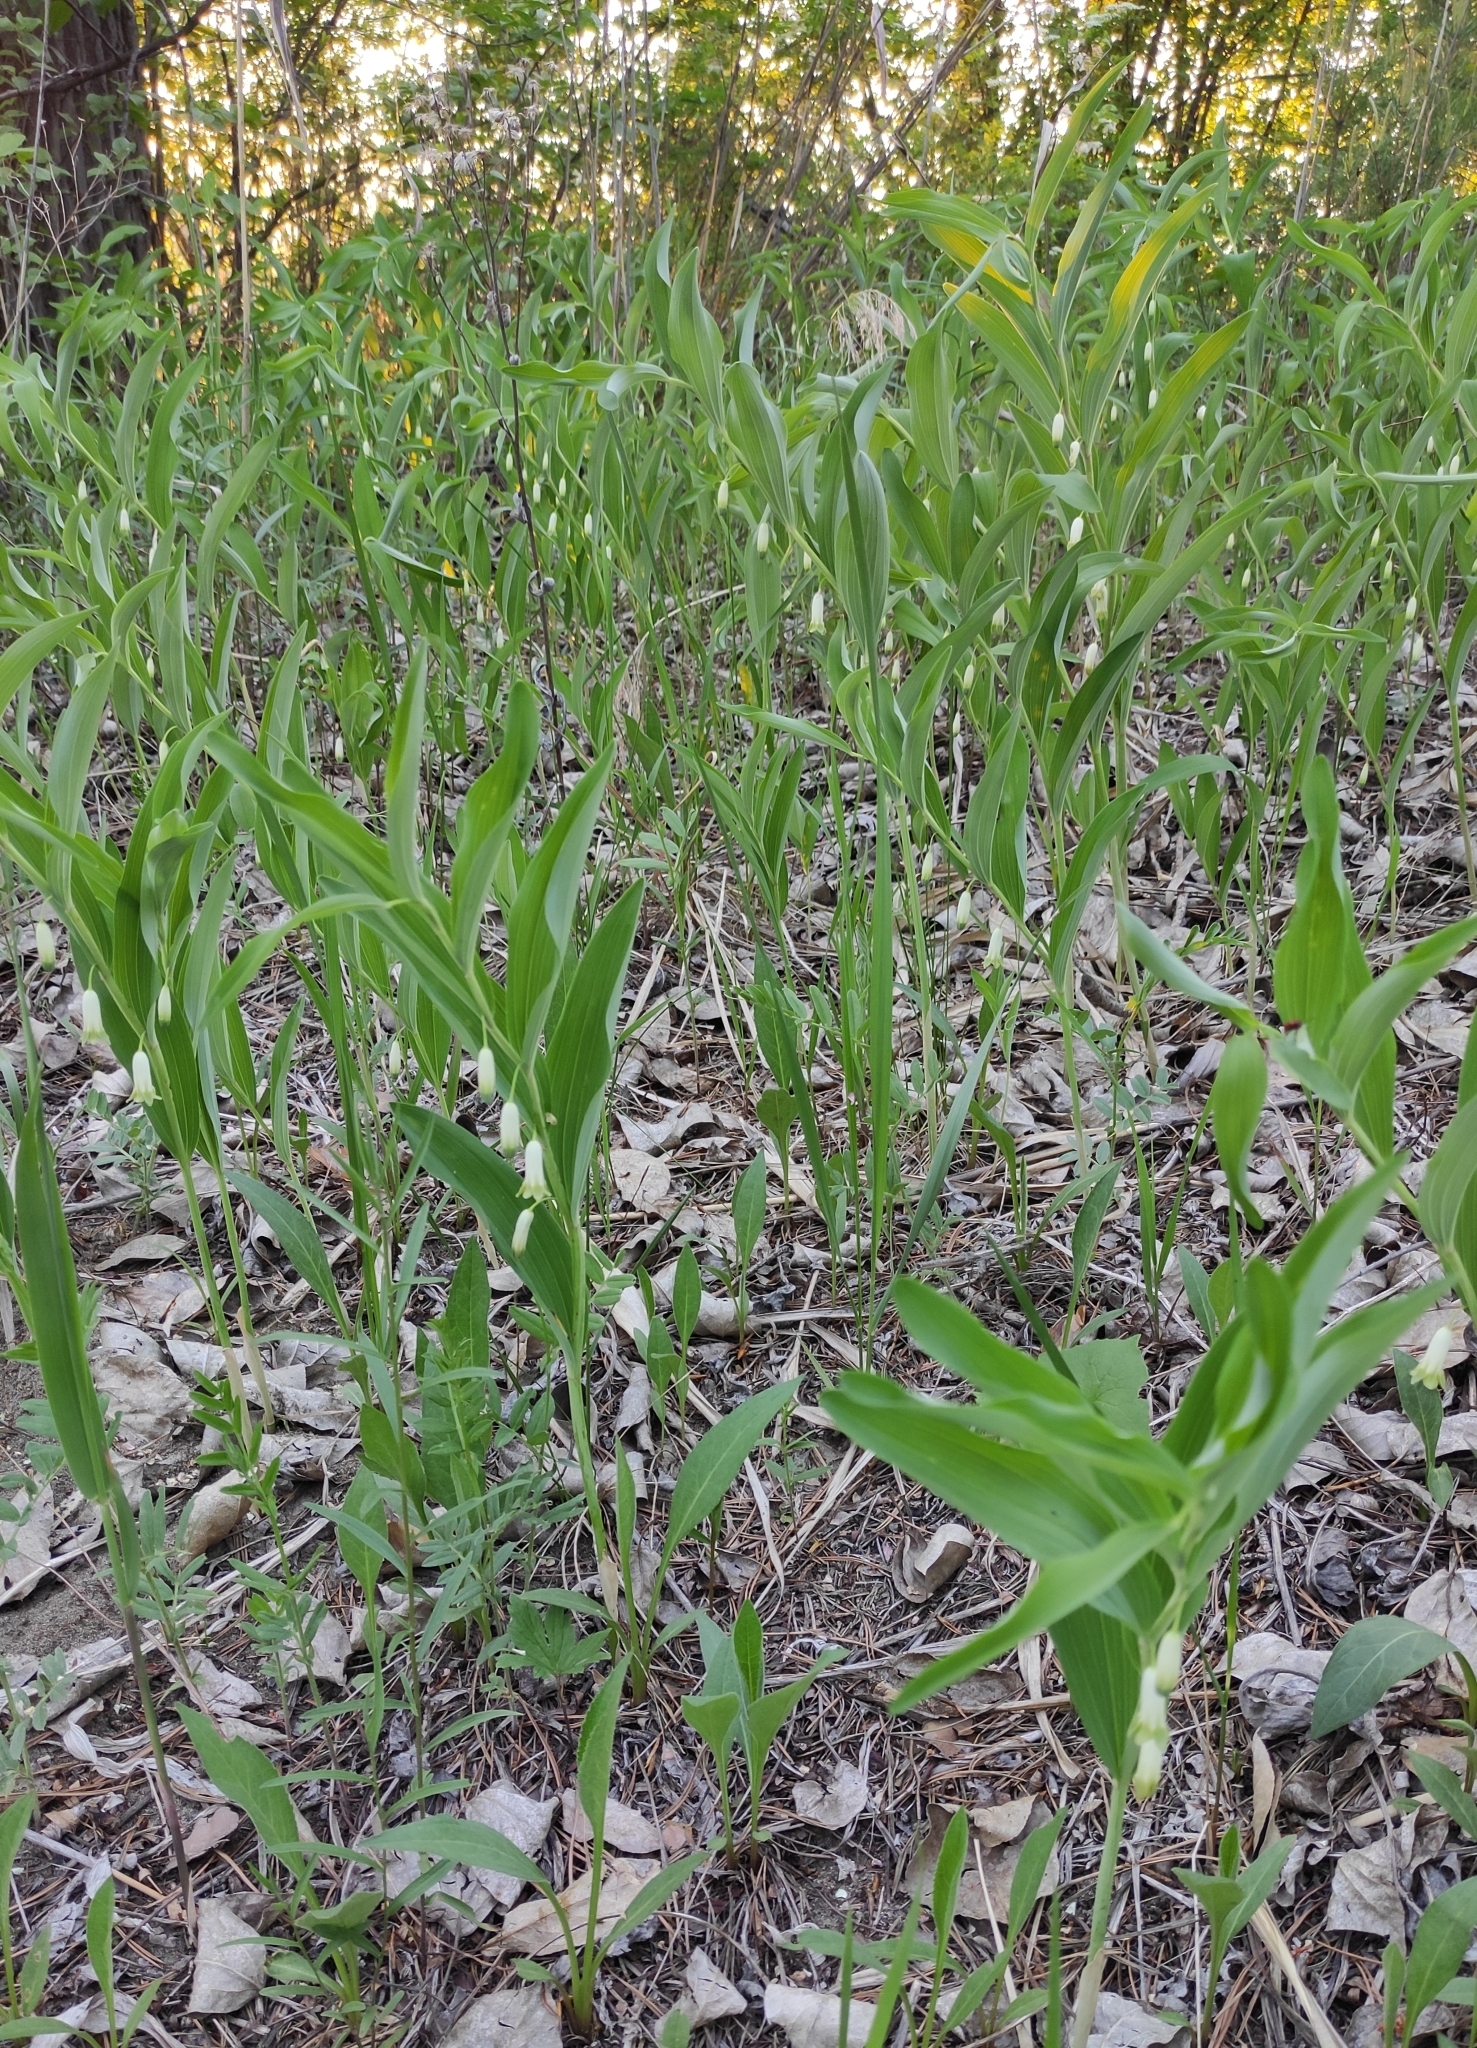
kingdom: Plantae
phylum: Tracheophyta
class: Liliopsida
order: Asparagales
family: Asparagaceae
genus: Polygonatum
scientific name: Polygonatum odoratum
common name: Angular solomon's-seal
